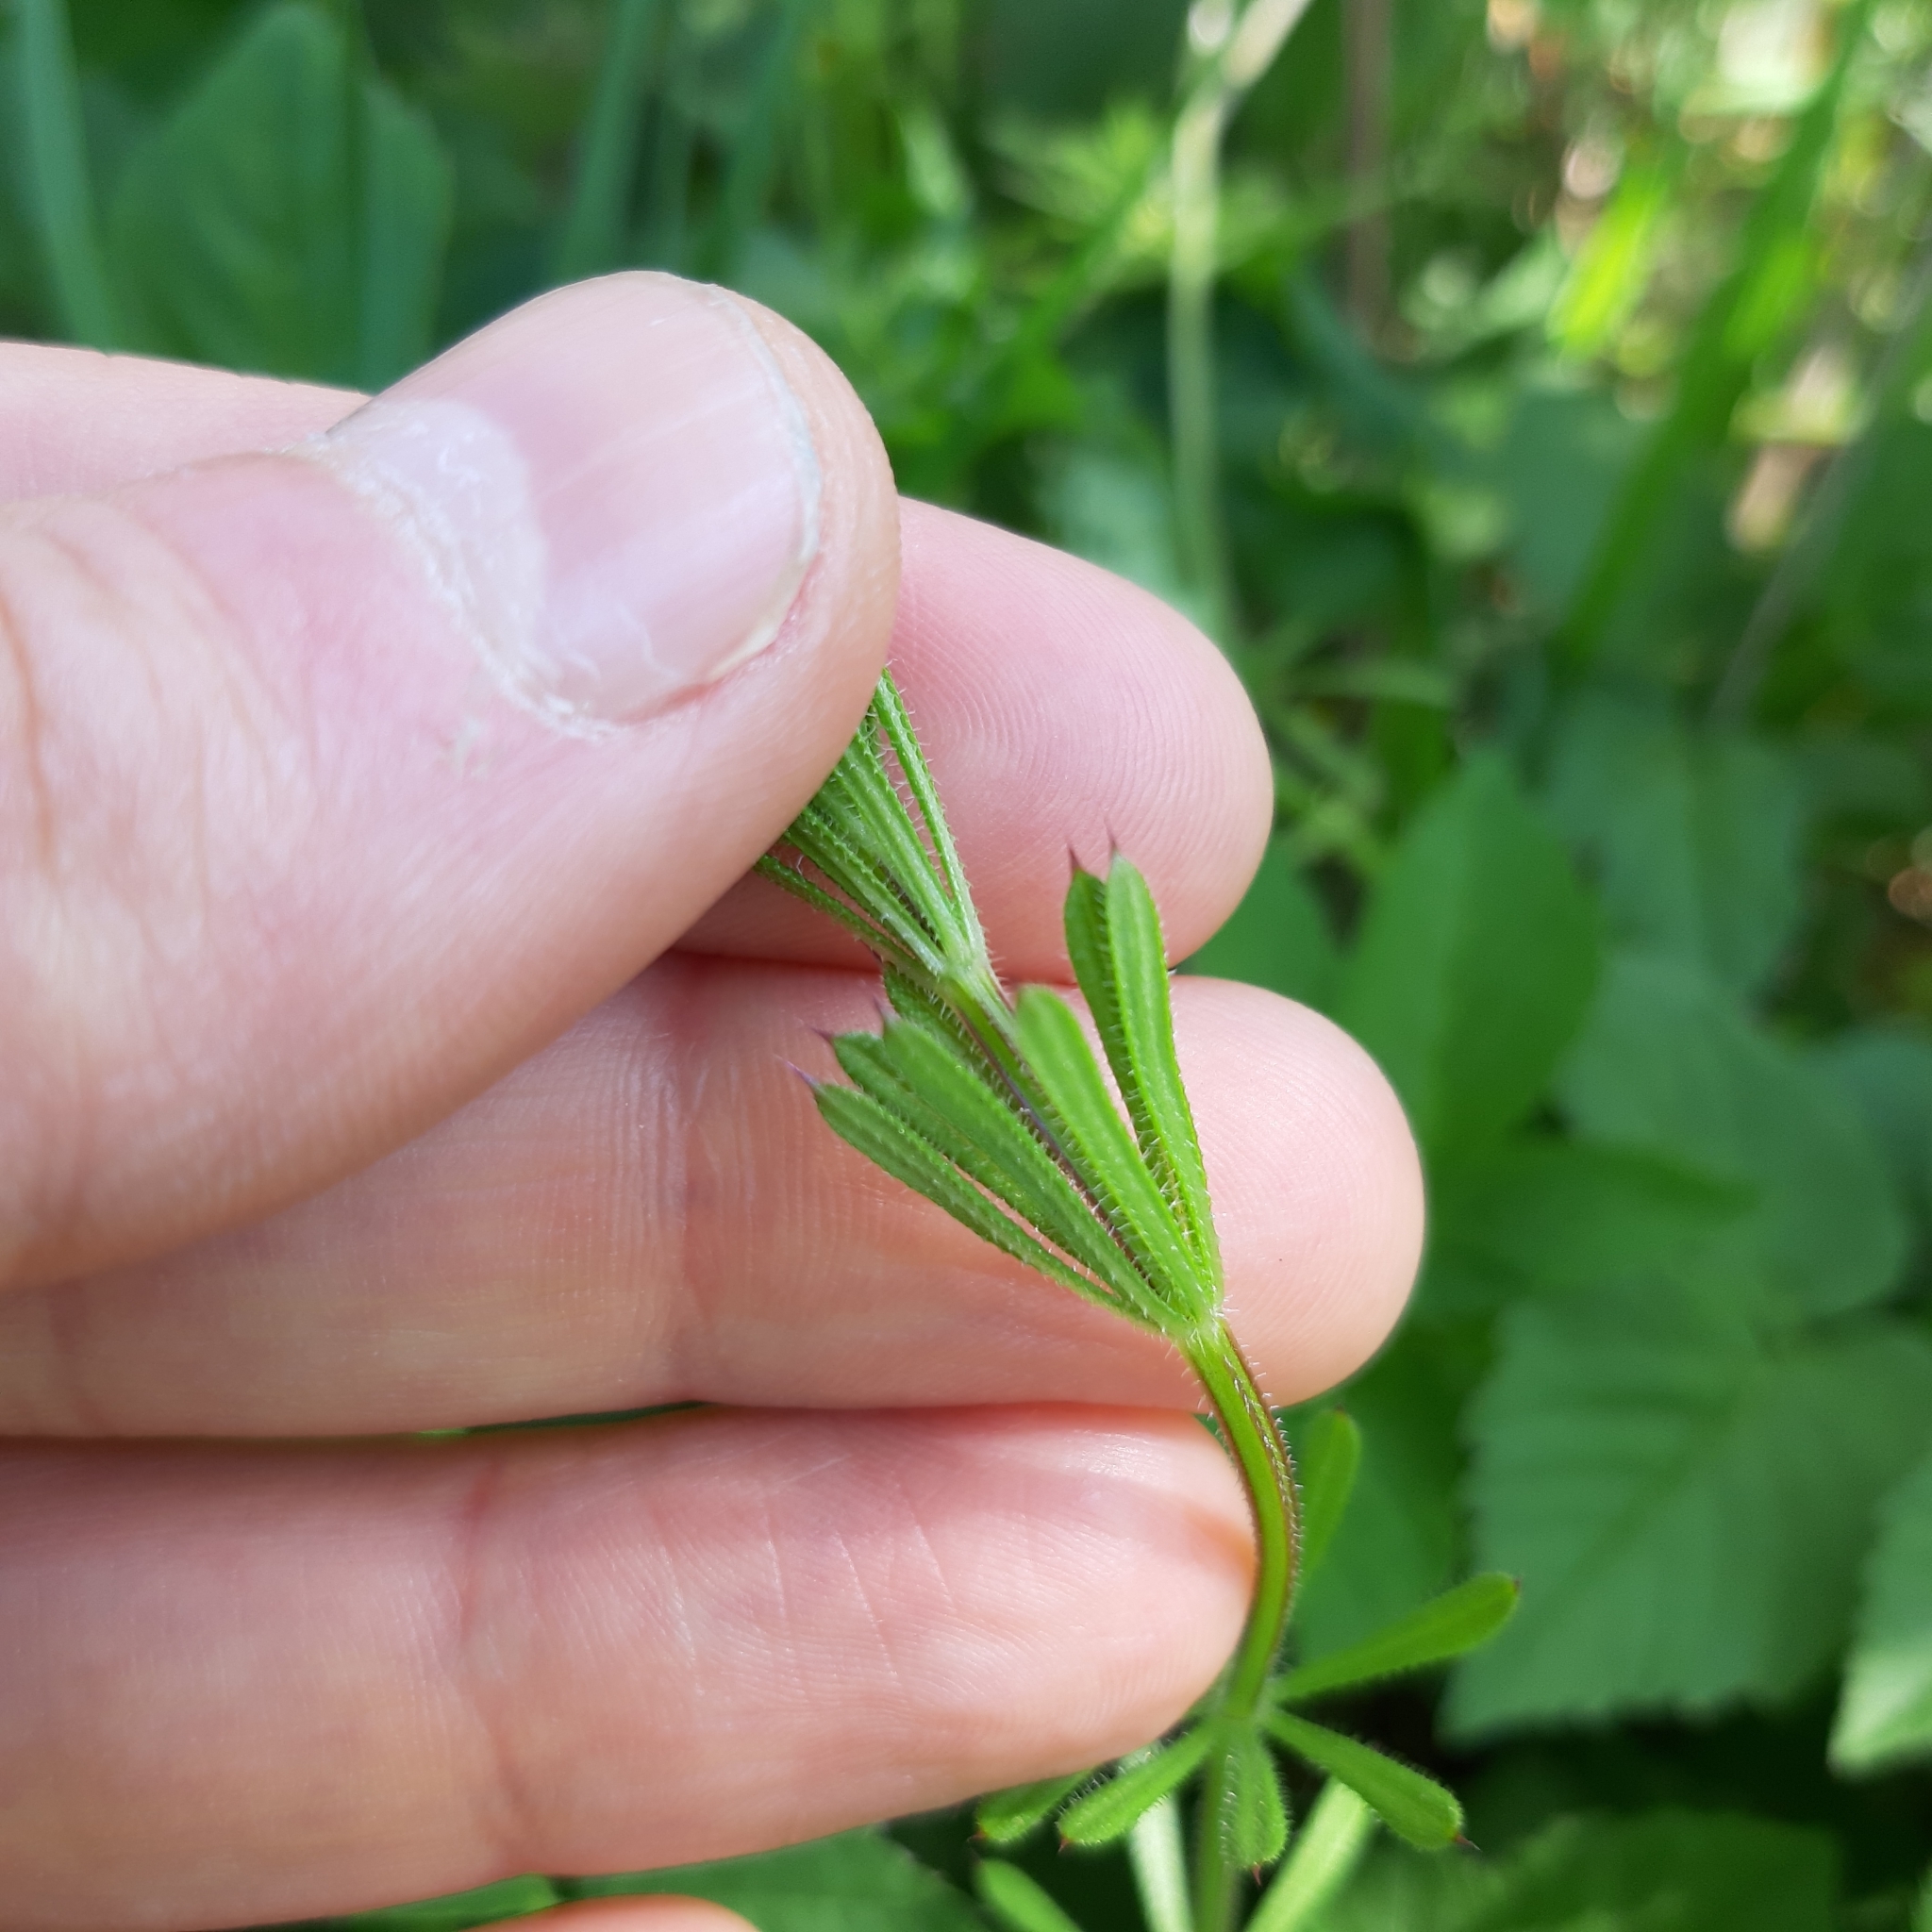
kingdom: Plantae
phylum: Tracheophyta
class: Magnoliopsida
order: Gentianales
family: Rubiaceae
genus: Galium
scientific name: Galium aparine
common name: Cleavers
